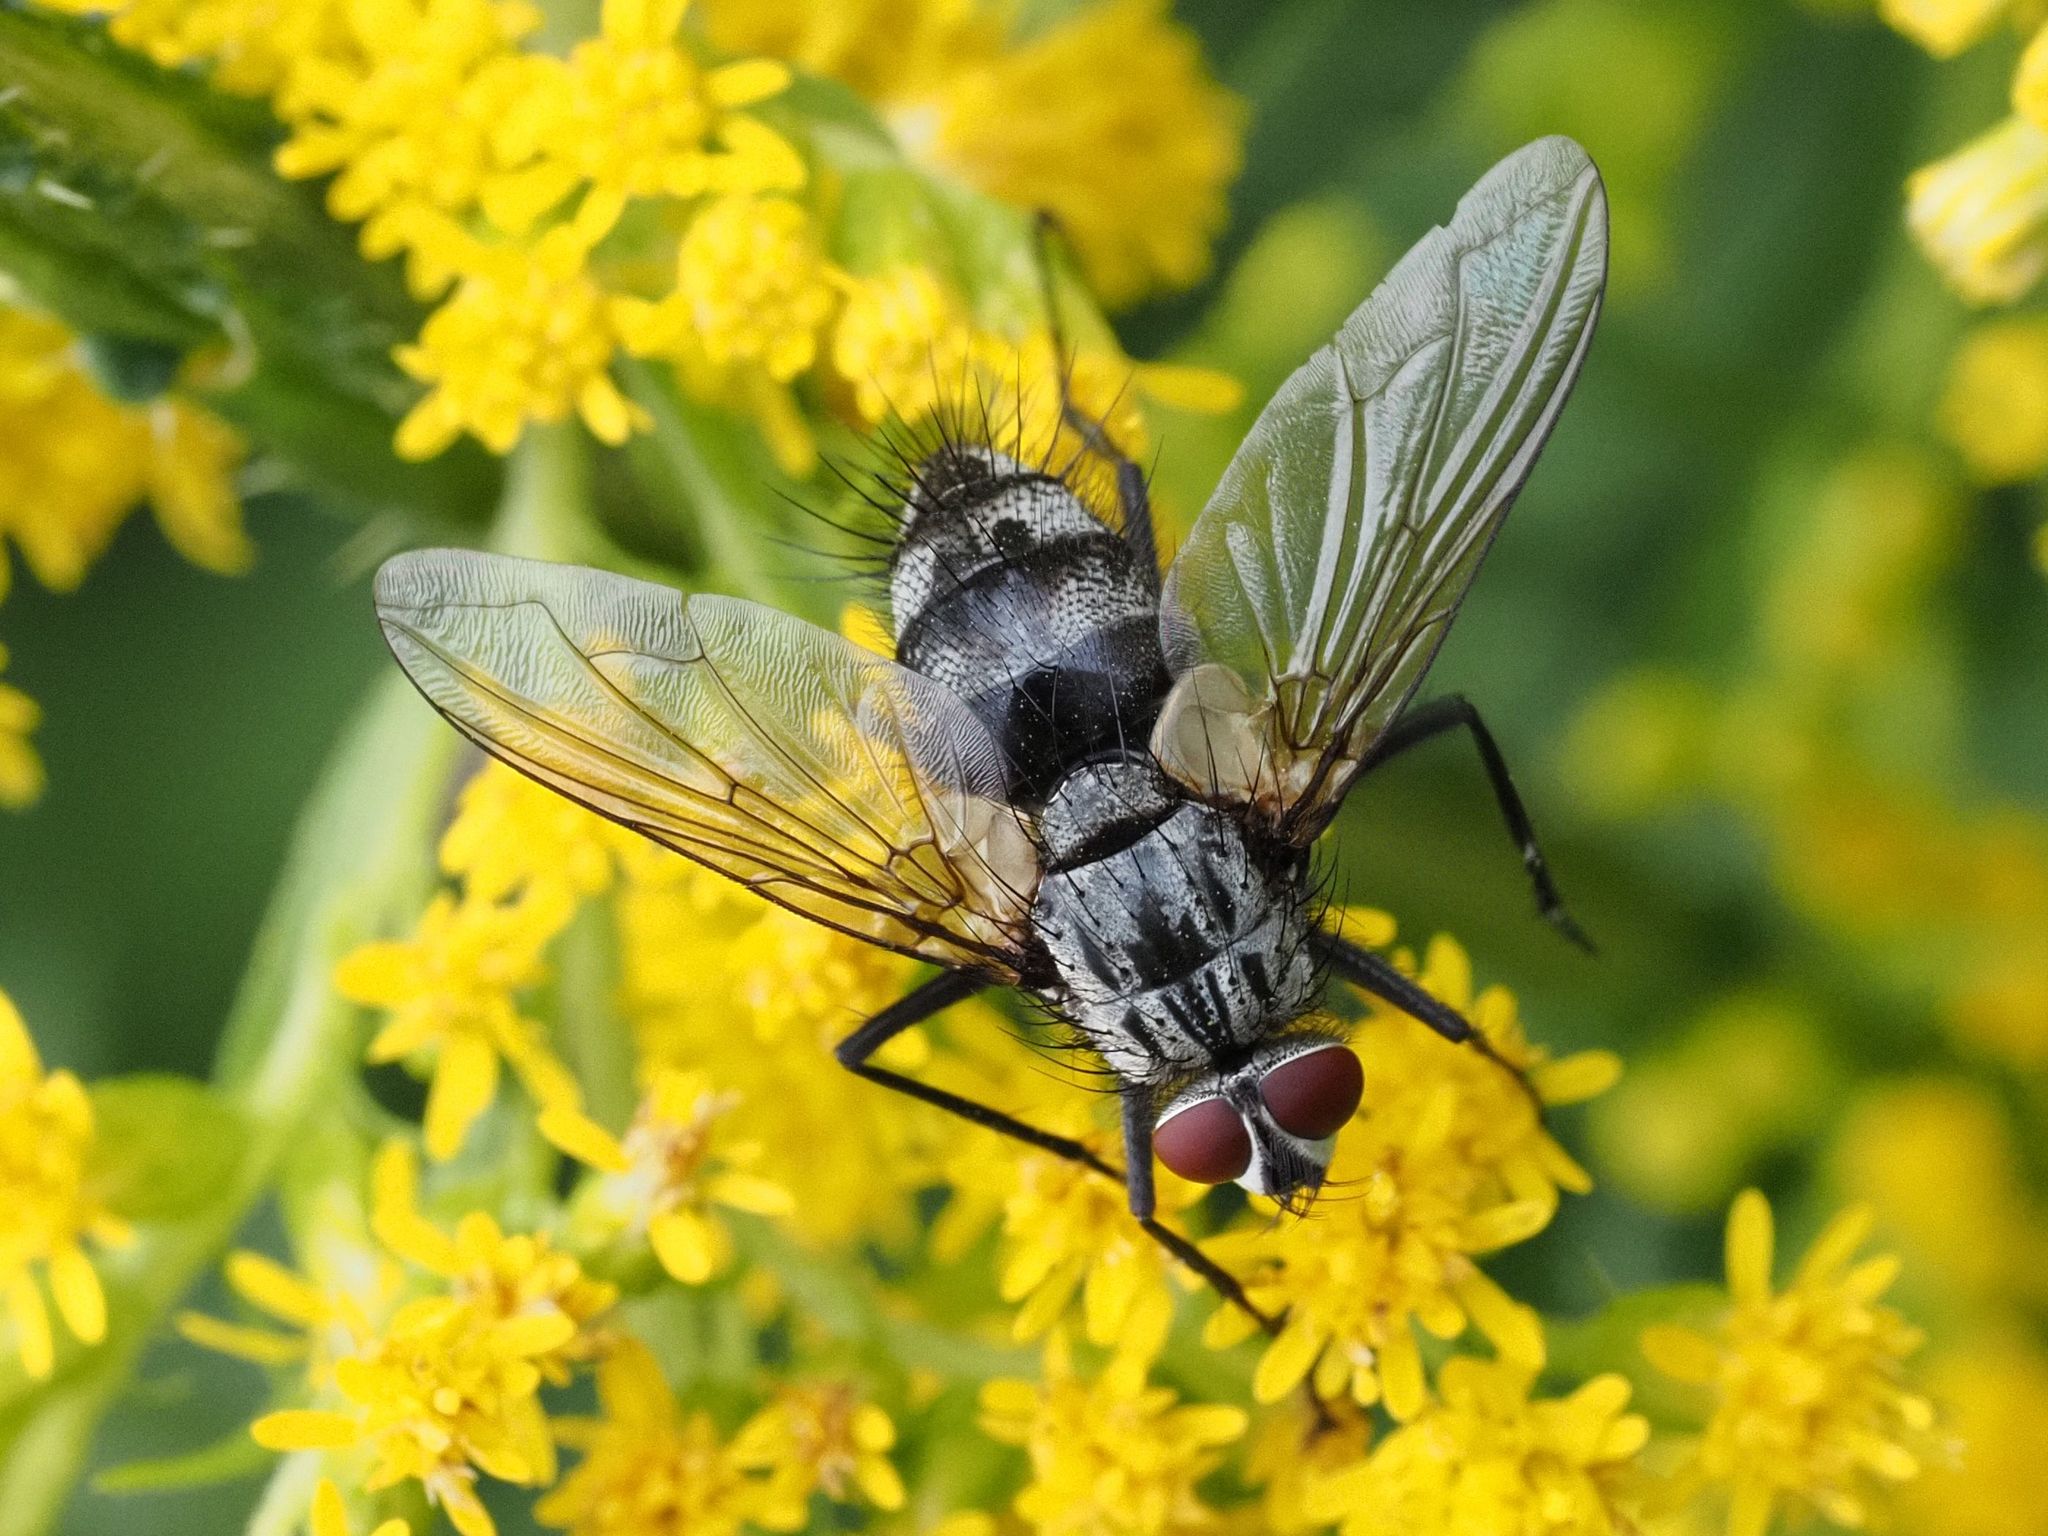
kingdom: Animalia
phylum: Arthropoda
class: Insecta
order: Diptera
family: Tachinidae
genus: Dinera
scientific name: Dinera ferina
